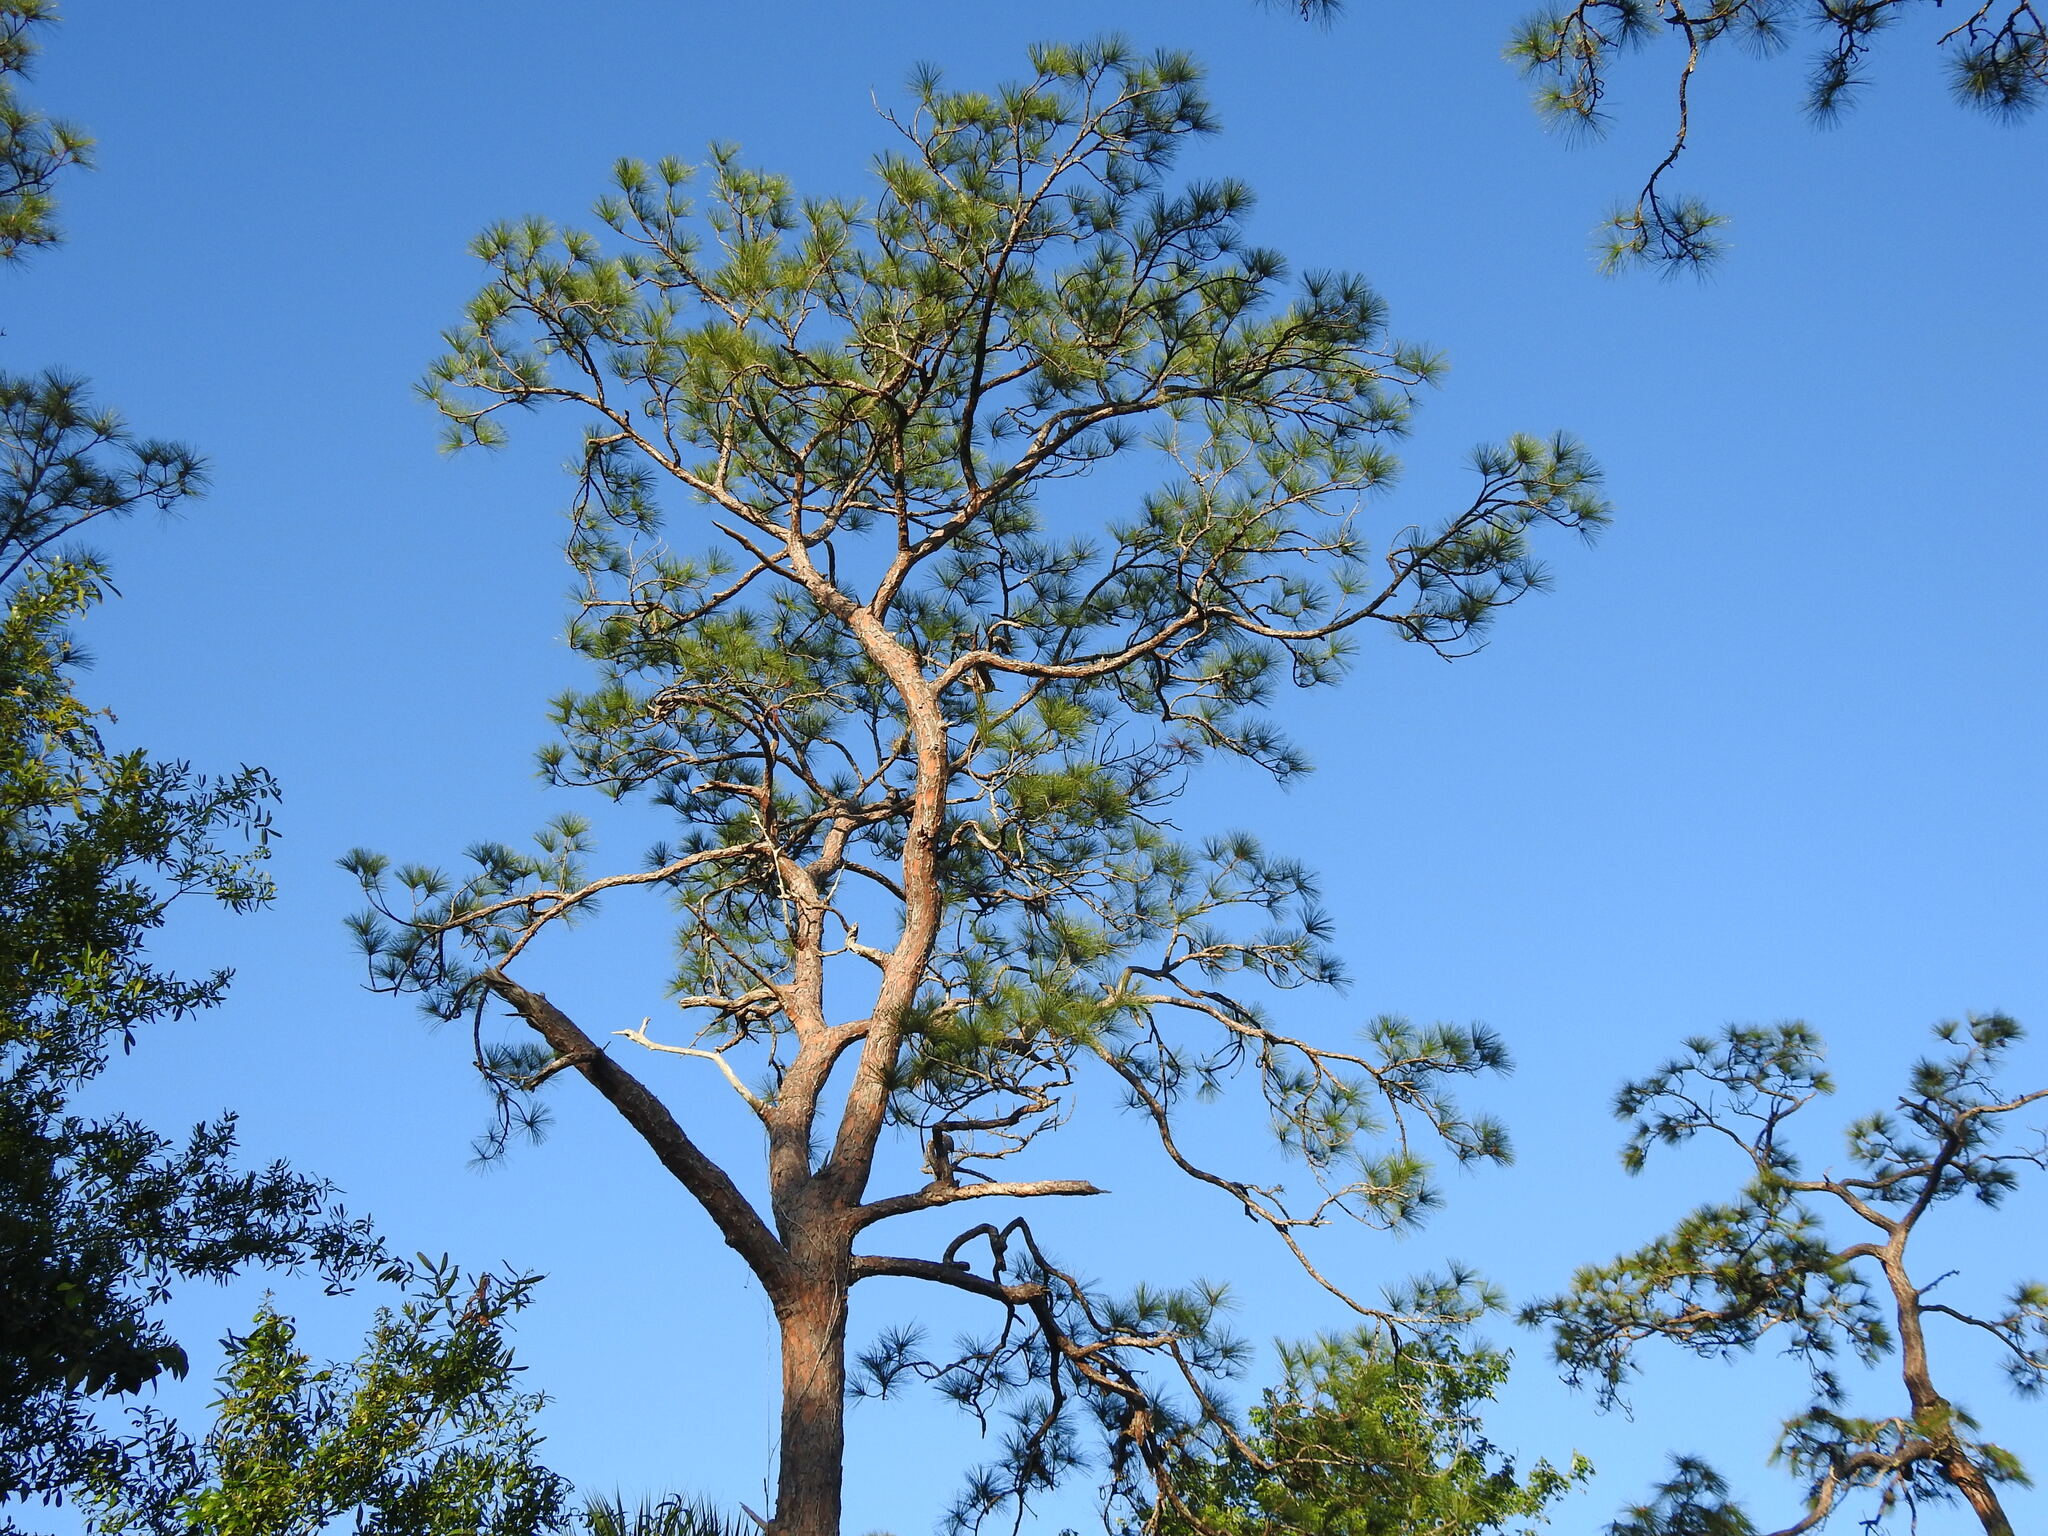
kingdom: Plantae
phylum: Tracheophyta
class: Pinopsida
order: Pinales
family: Pinaceae
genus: Pinus
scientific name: Pinus elliottii
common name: Slash pine
